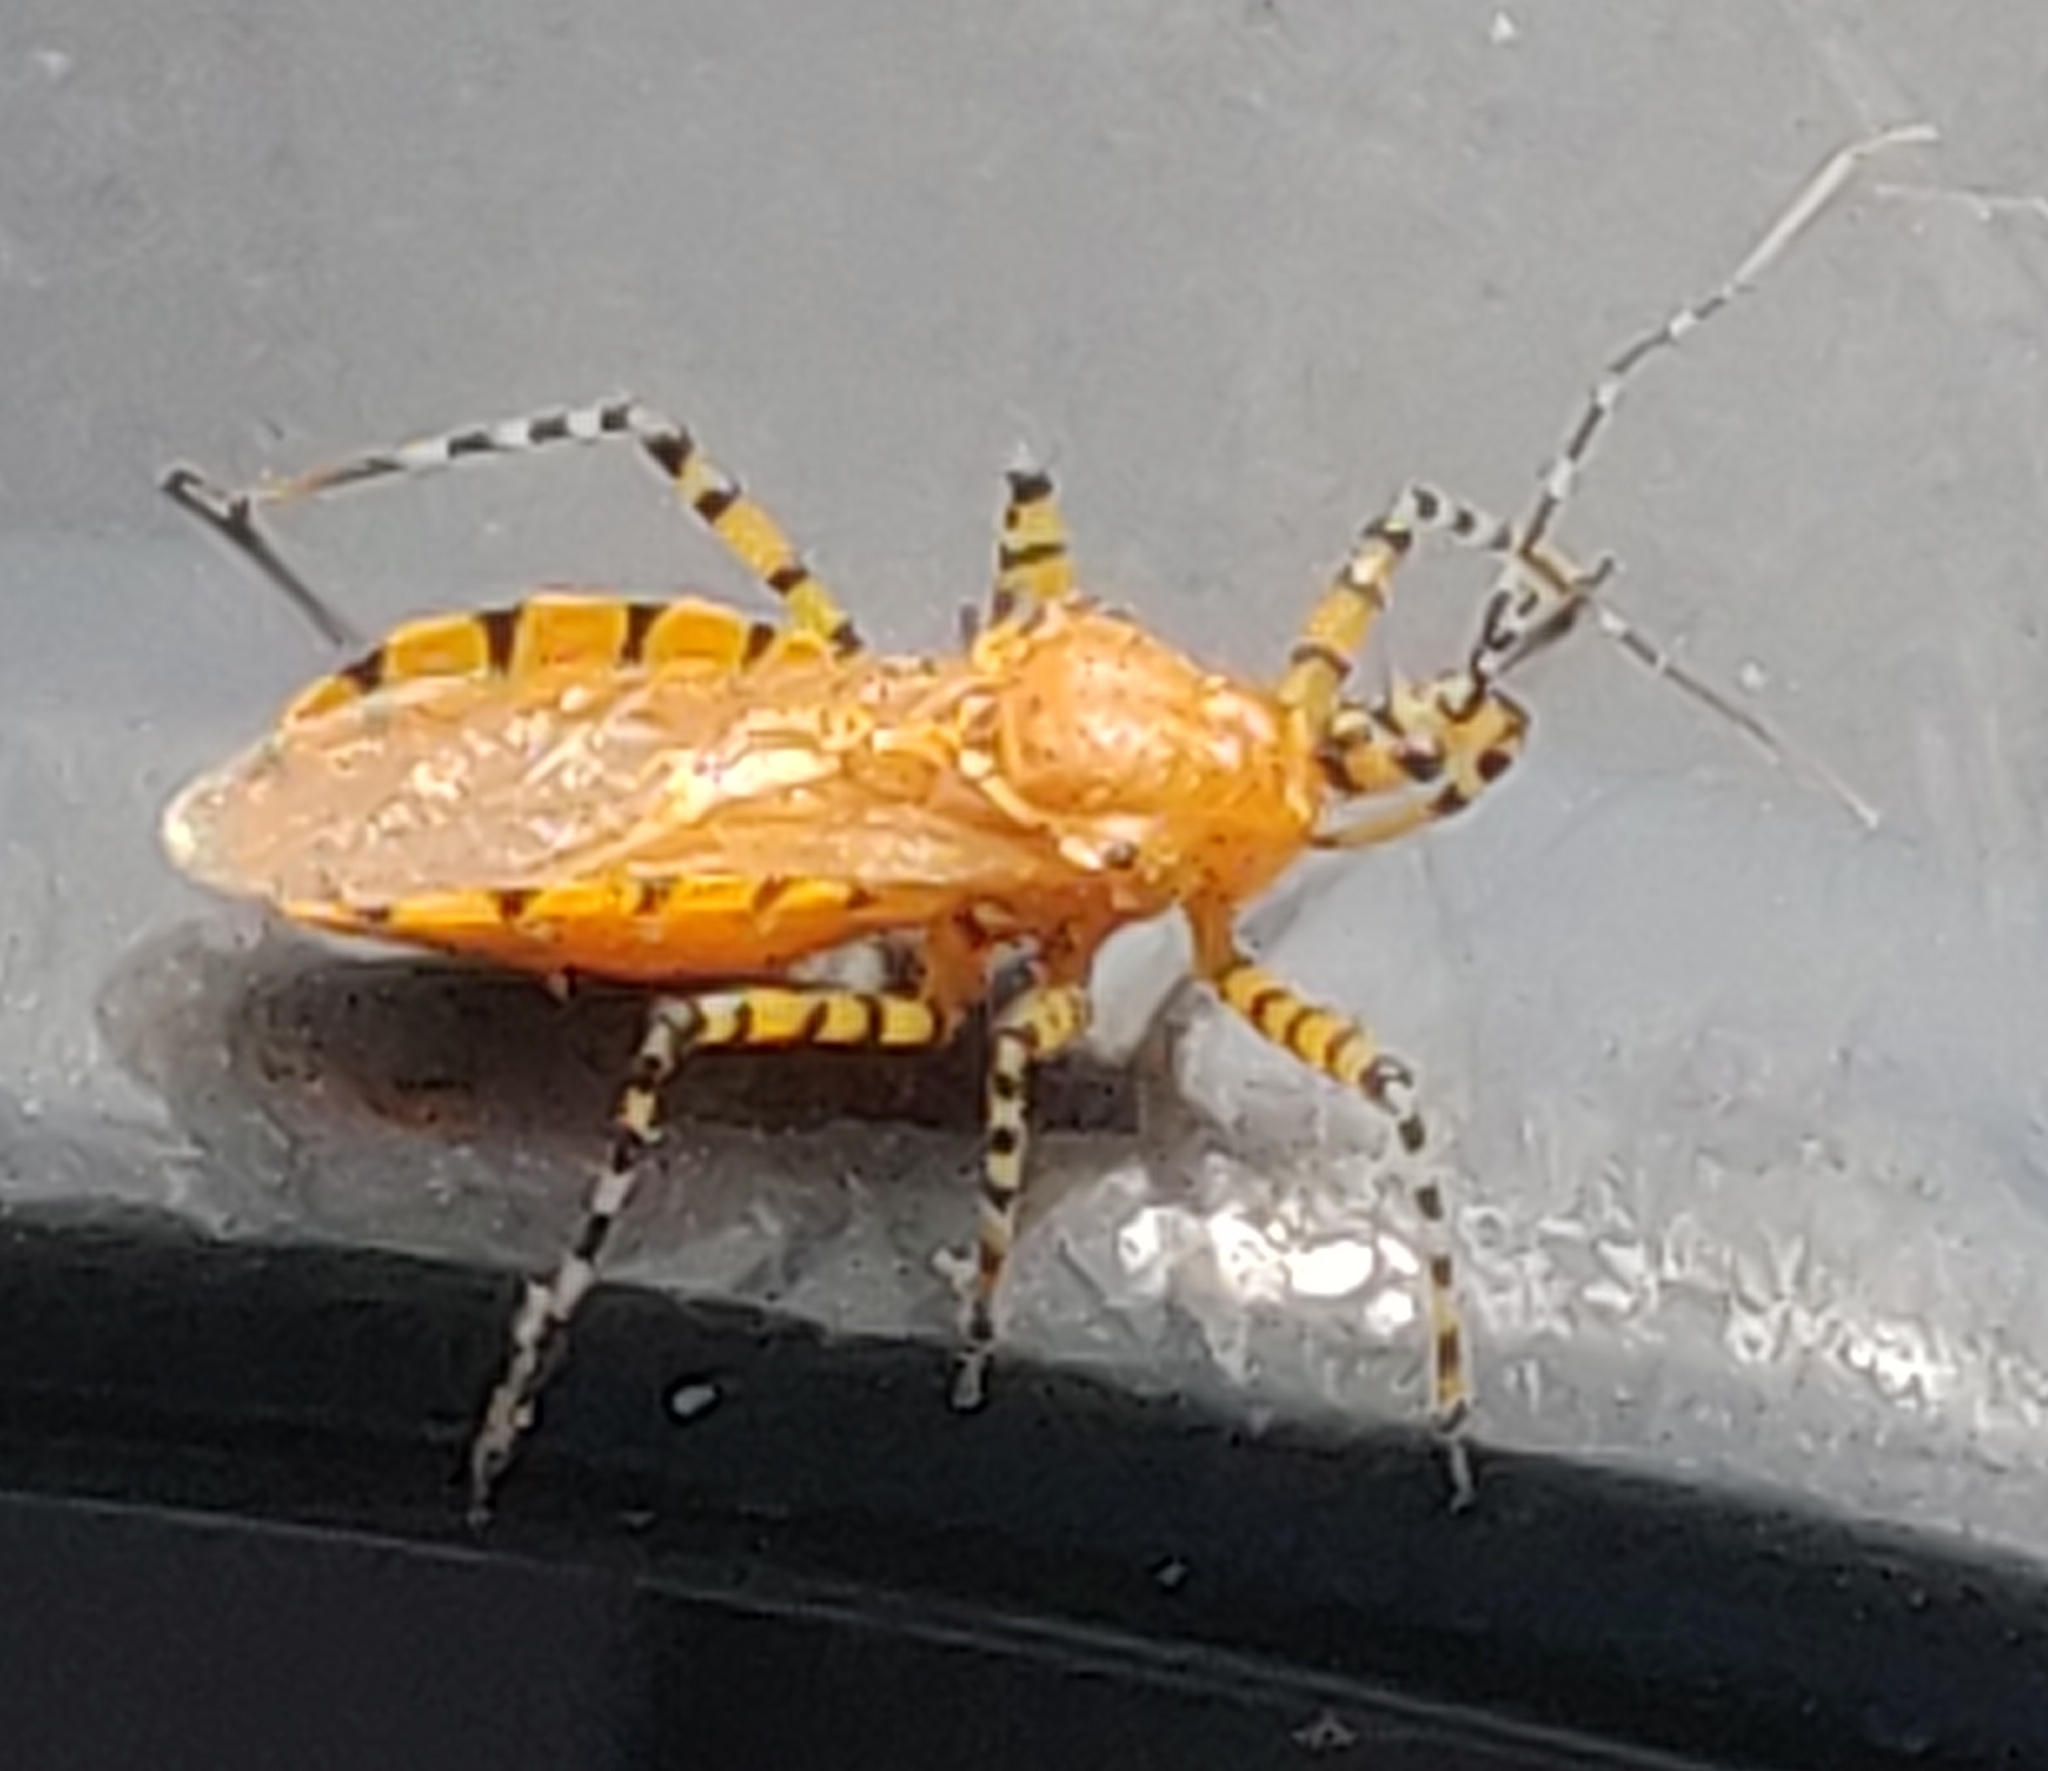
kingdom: Animalia
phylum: Arthropoda
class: Insecta
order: Hemiptera
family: Reduviidae
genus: Pselliopus
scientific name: Pselliopus barberi
